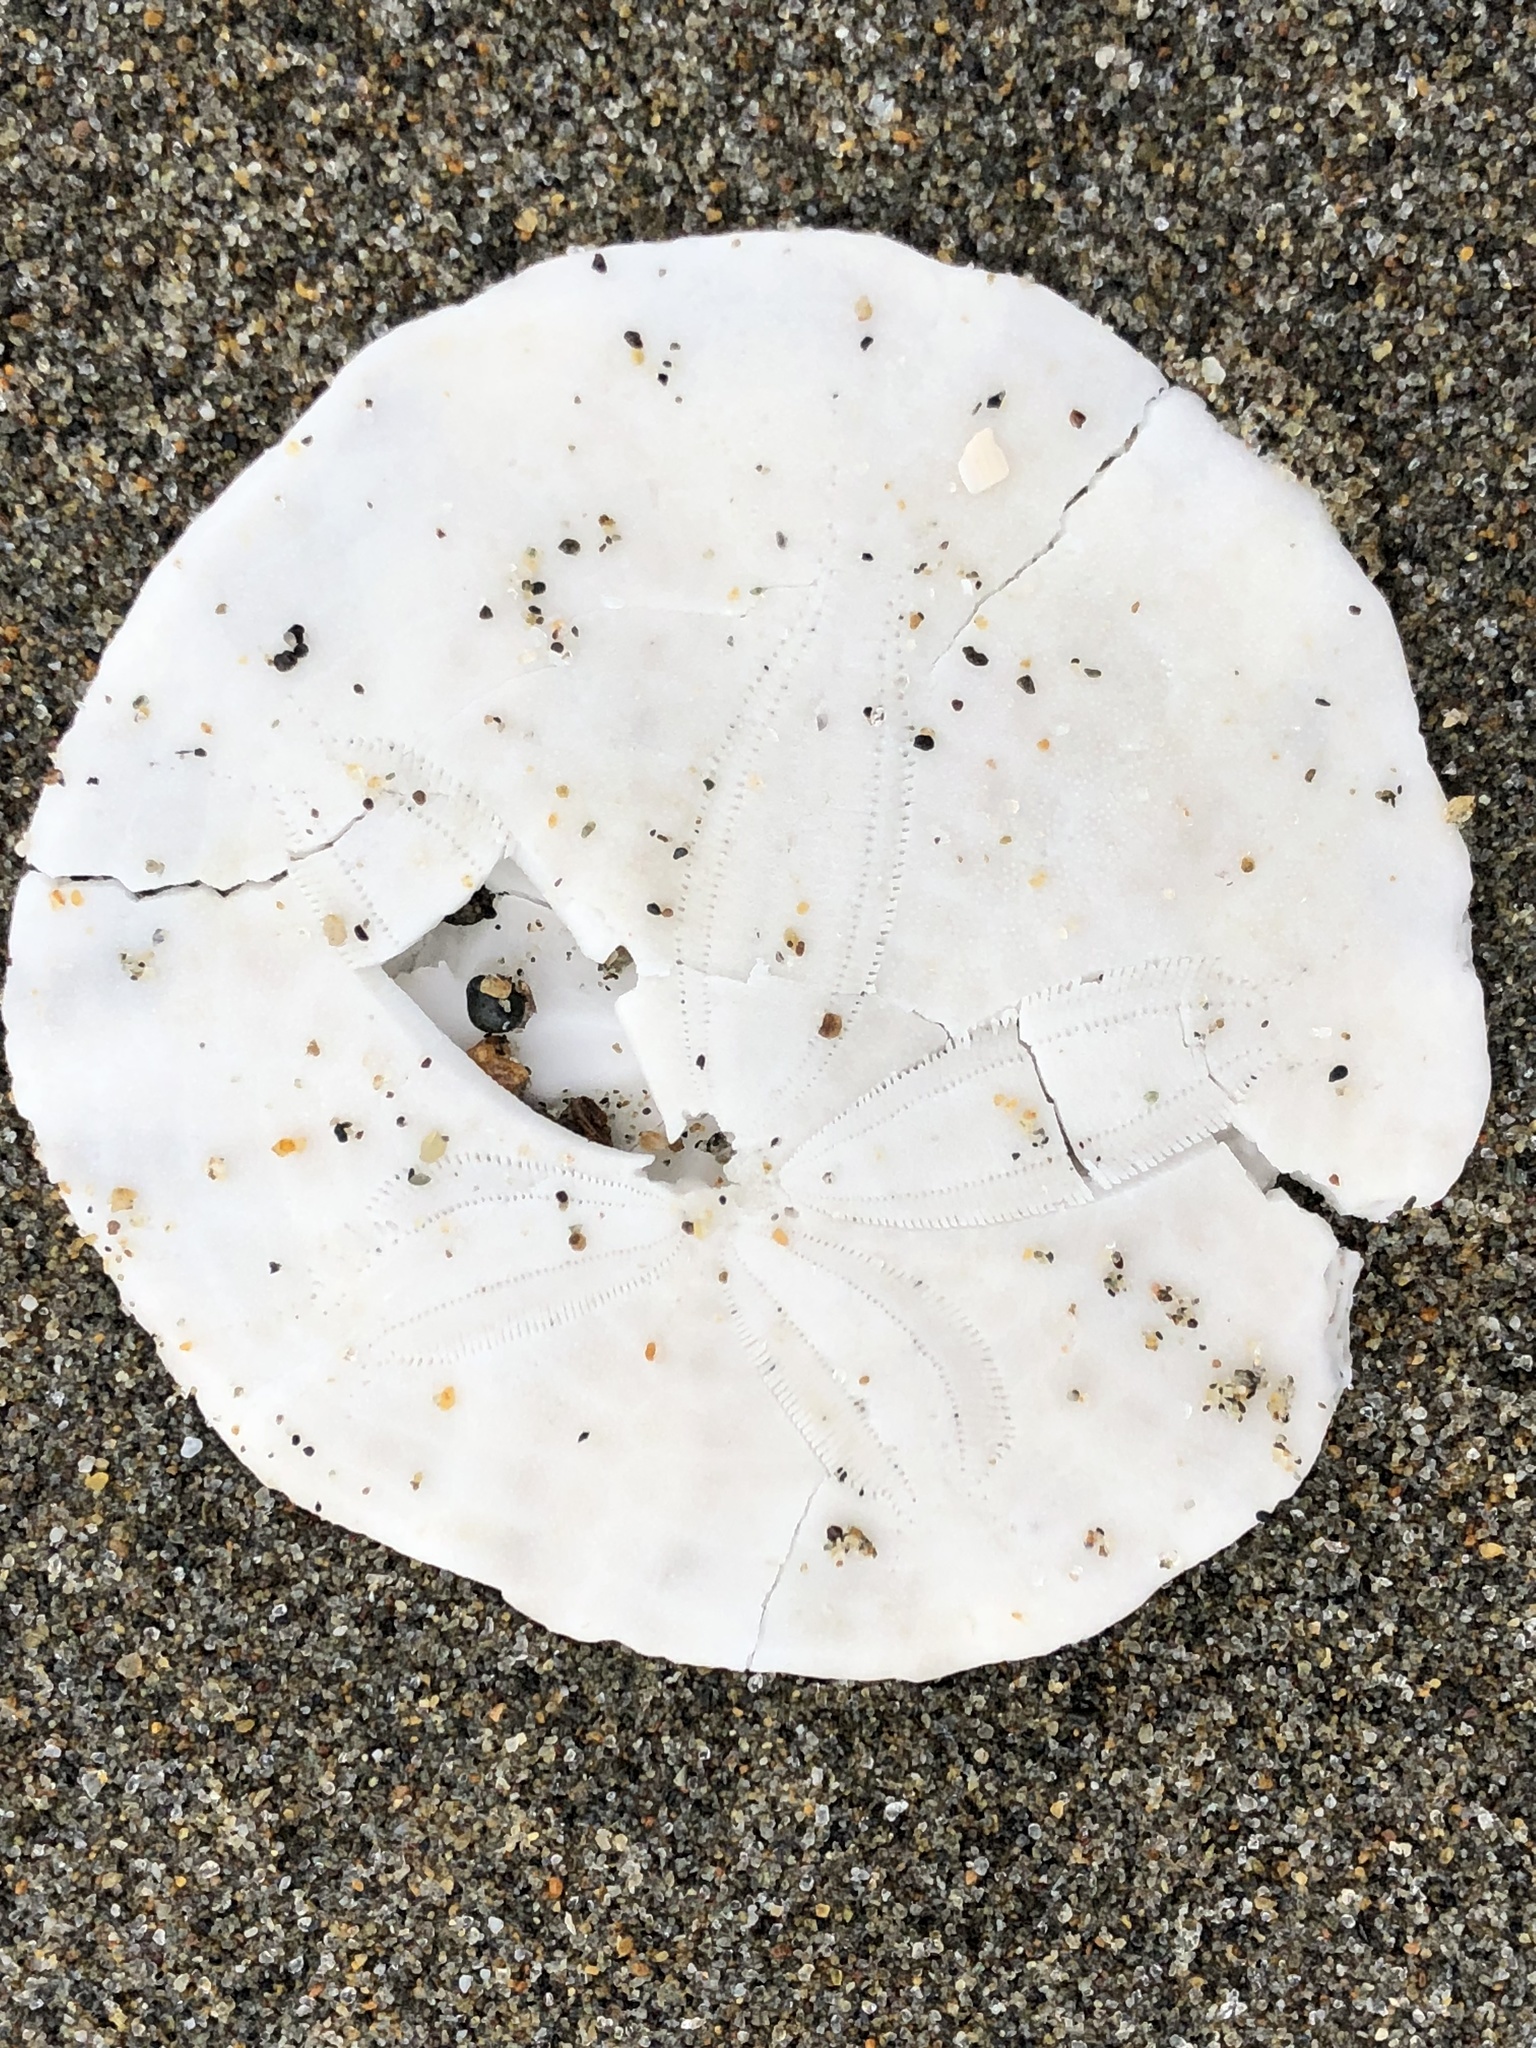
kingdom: Animalia
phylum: Echinodermata
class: Echinoidea
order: Echinolampadacea
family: Dendrasteridae
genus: Dendraster
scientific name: Dendraster excentricus
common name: Eccentric sand dollar sea urchin
